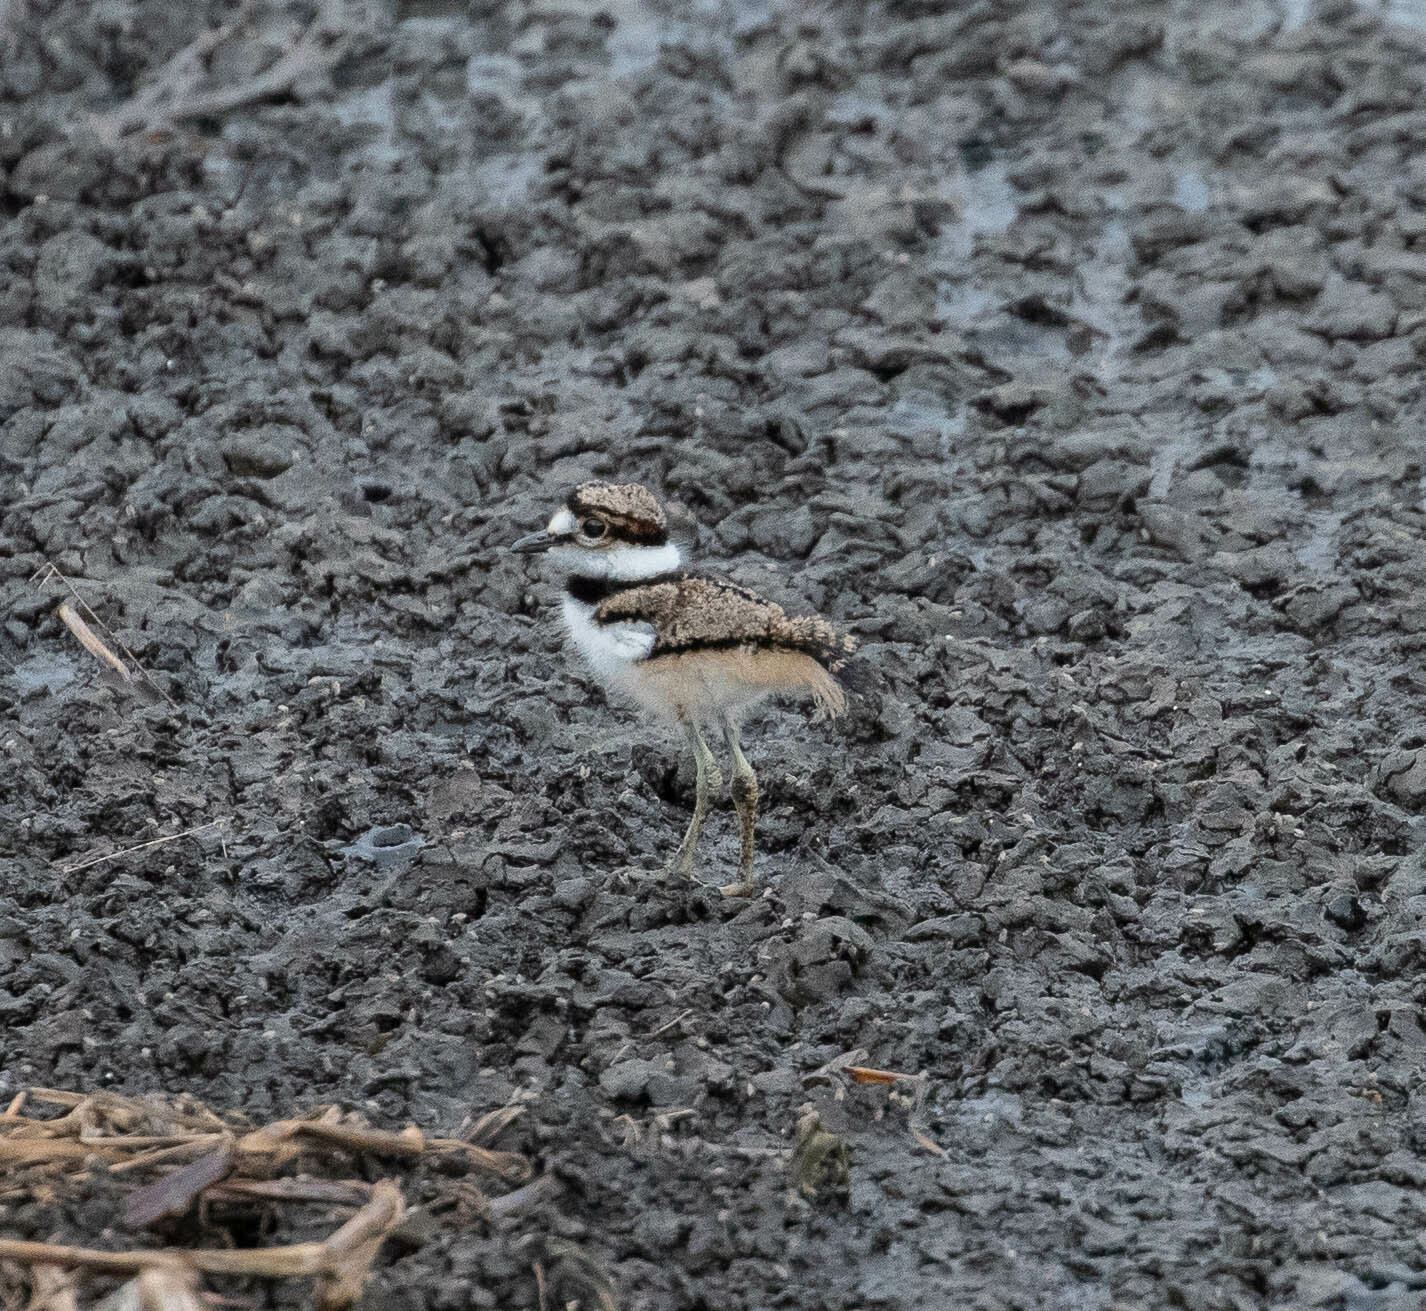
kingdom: Animalia
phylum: Chordata
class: Aves
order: Charadriiformes
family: Charadriidae
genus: Charadrius
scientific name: Charadrius vociferus
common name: Killdeer
